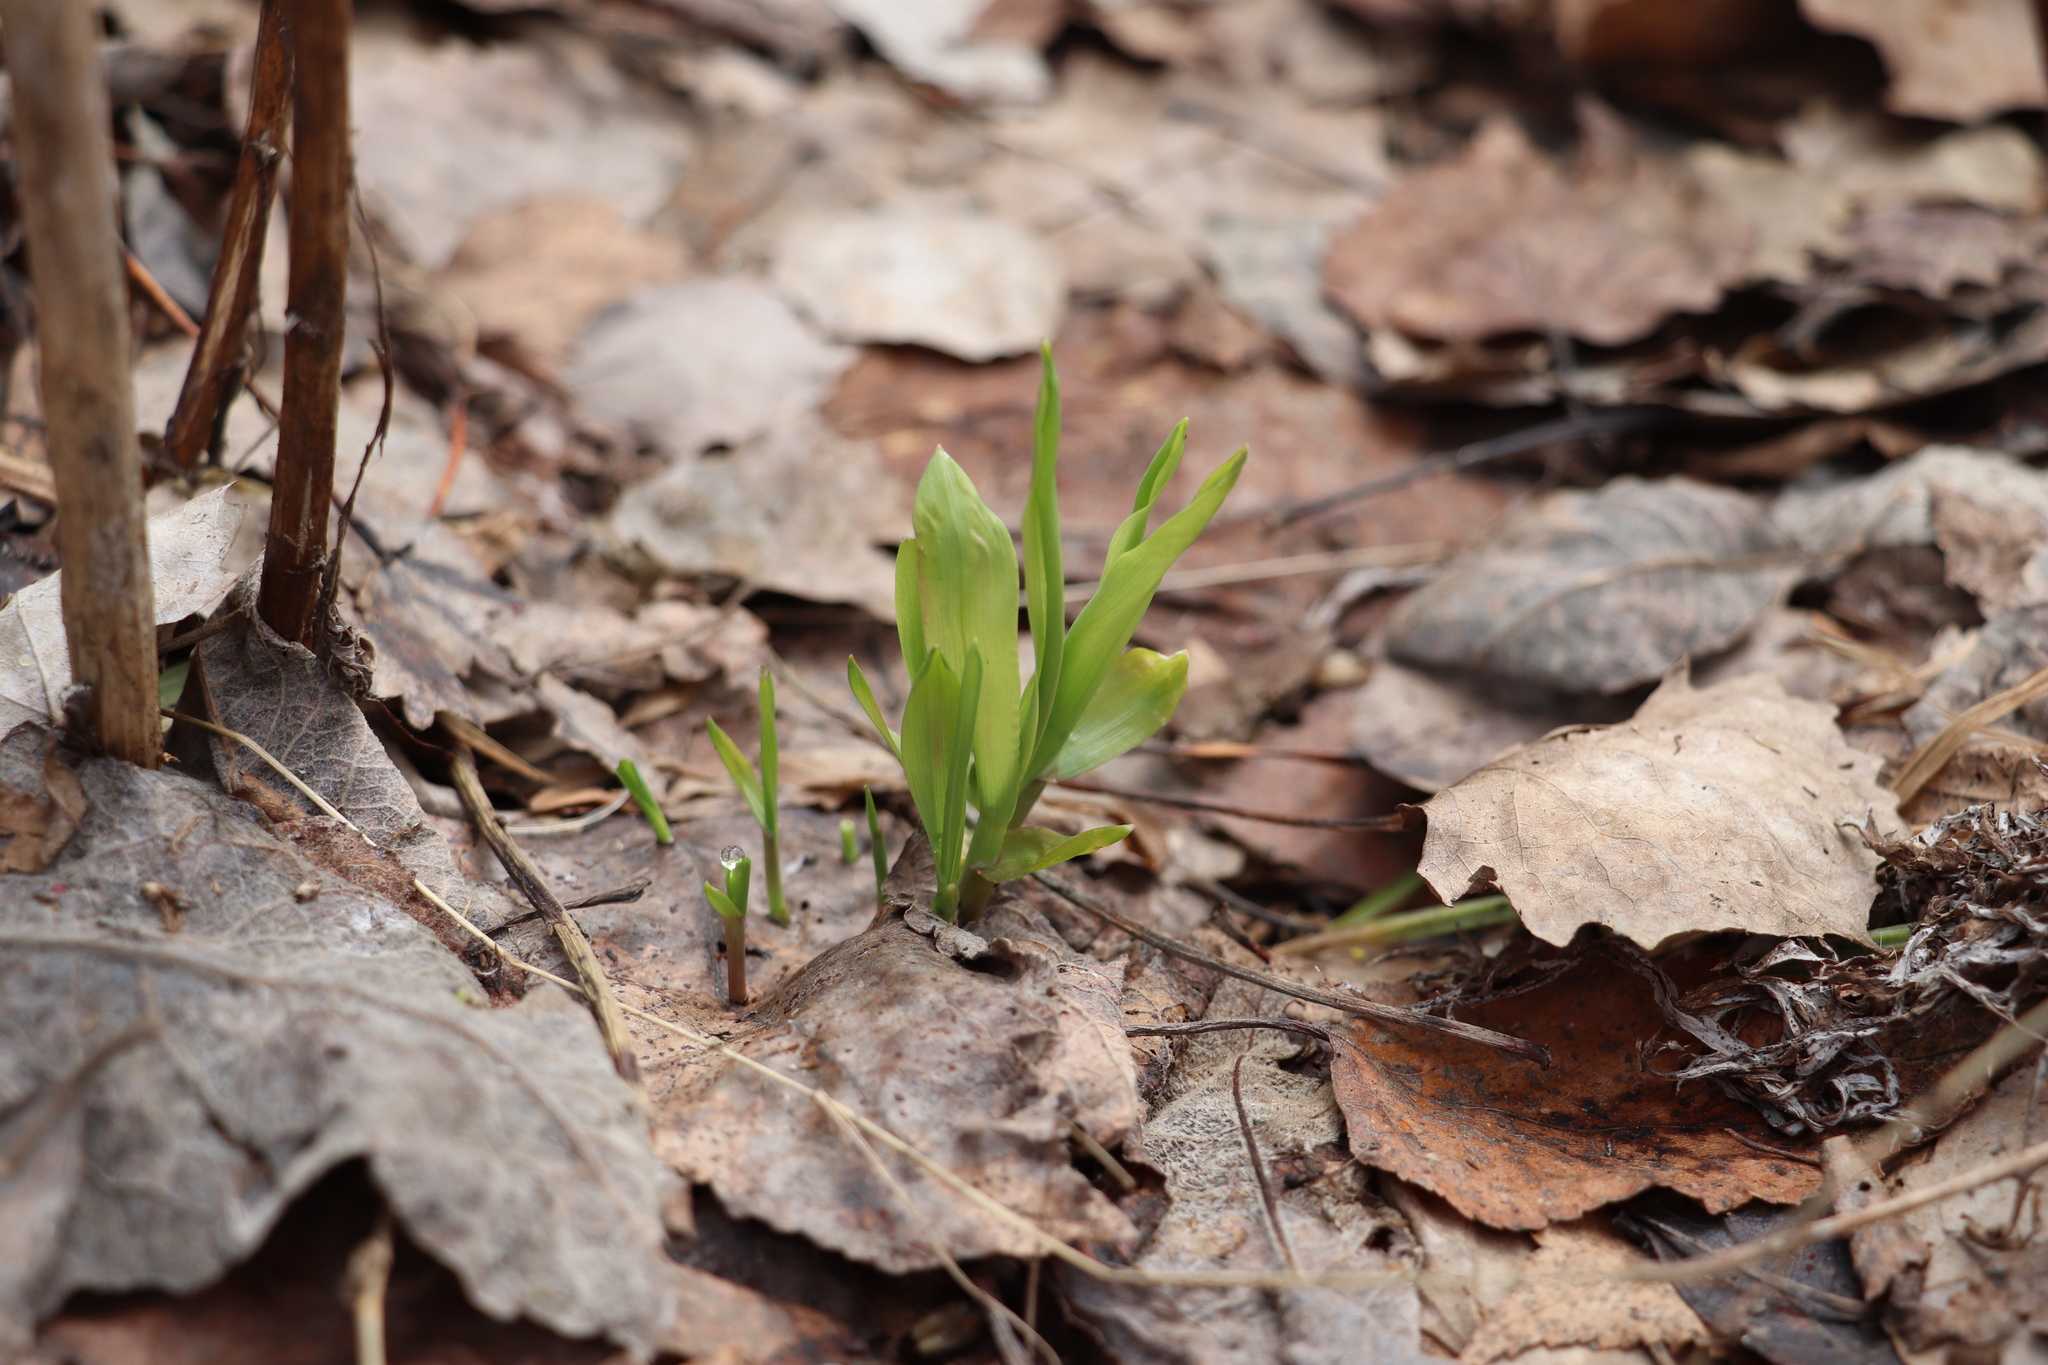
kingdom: Plantae
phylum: Tracheophyta
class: Liliopsida
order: Poales
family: Poaceae
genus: Milium
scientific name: Milium effusum
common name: Wood millet
